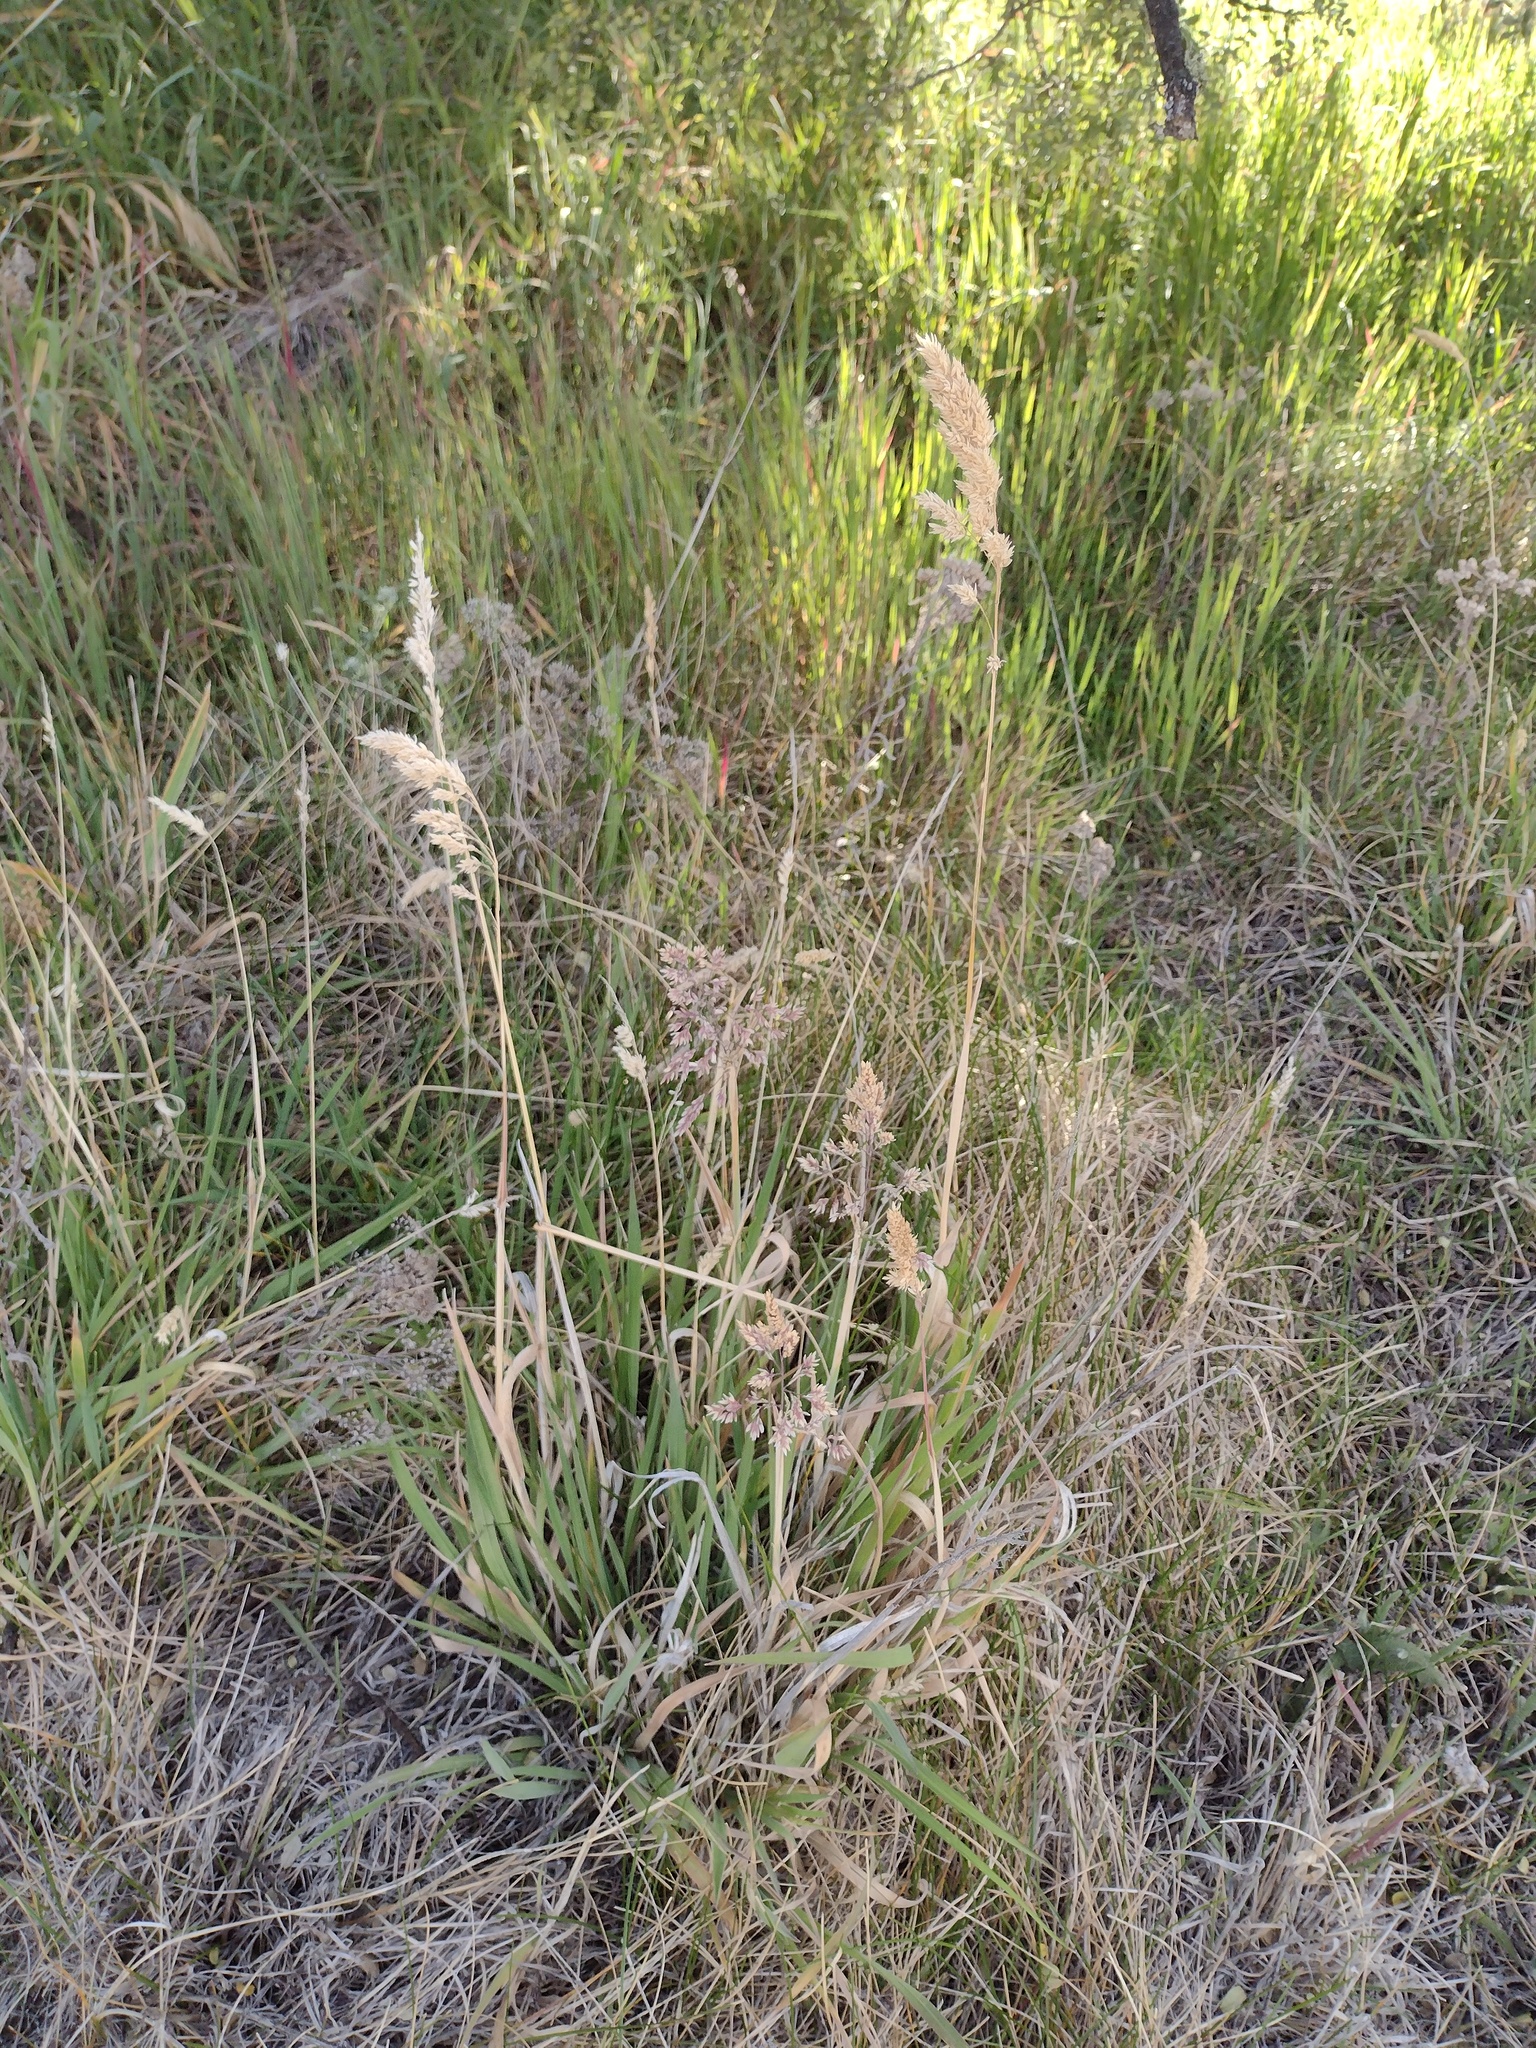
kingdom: Plantae
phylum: Tracheophyta
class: Liliopsida
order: Poales
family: Poaceae
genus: Holcus
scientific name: Holcus lanatus
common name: Yorkshire-fog
